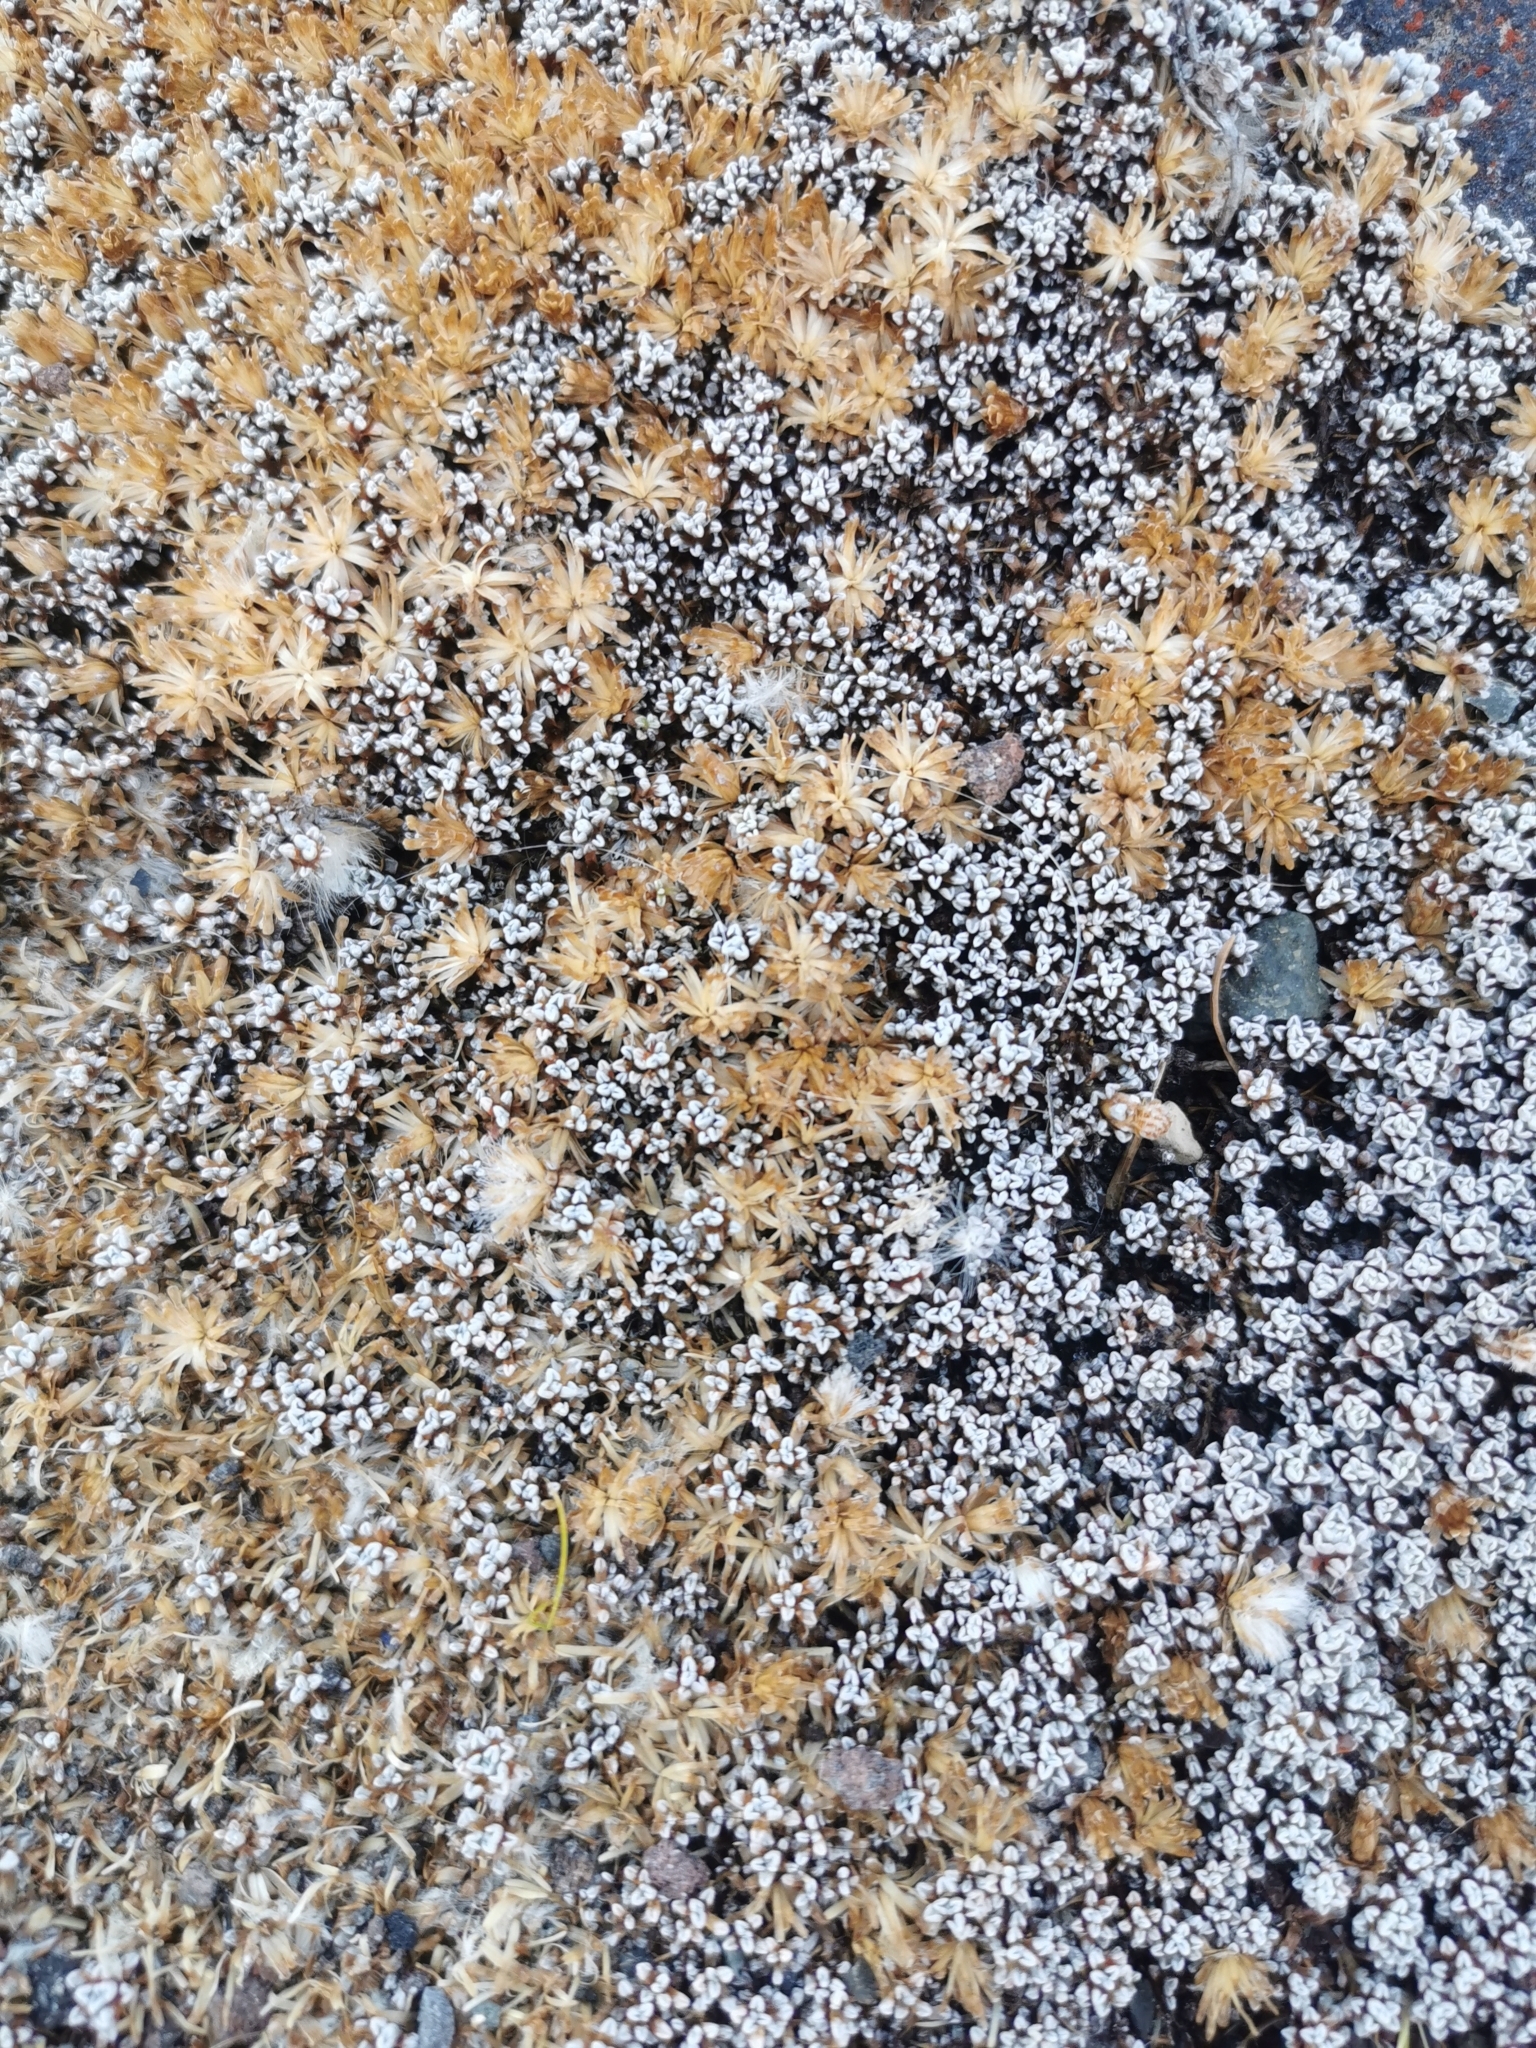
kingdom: Plantae
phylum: Tracheophyta
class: Magnoliopsida
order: Asterales
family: Asteraceae
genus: Raoulia
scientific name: Raoulia albosericea
